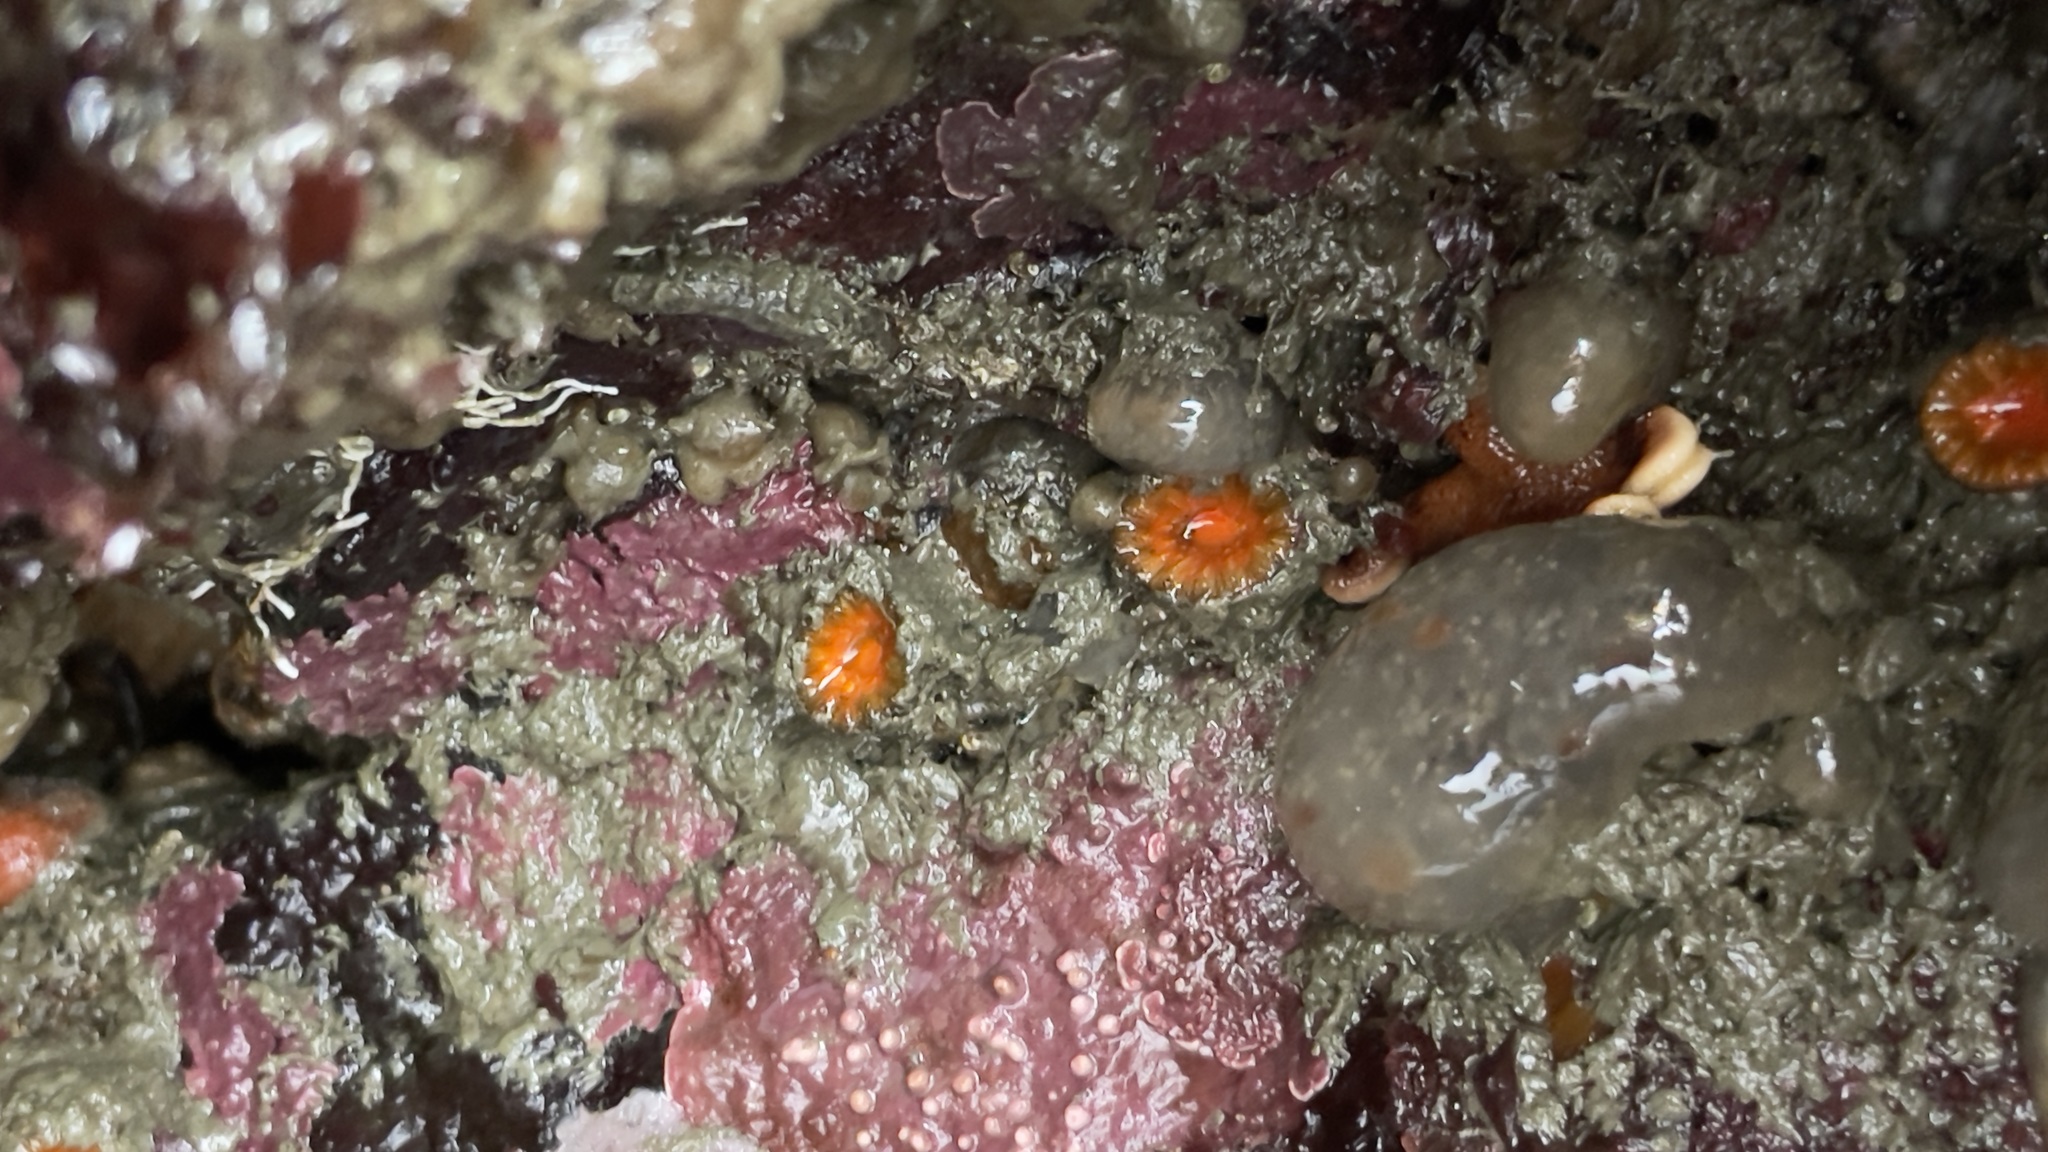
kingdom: Animalia
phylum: Cnidaria
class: Anthozoa
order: Scleractinia
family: Dendrophylliidae
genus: Balanophyllia
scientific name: Balanophyllia elegans
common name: Orange stony coral
